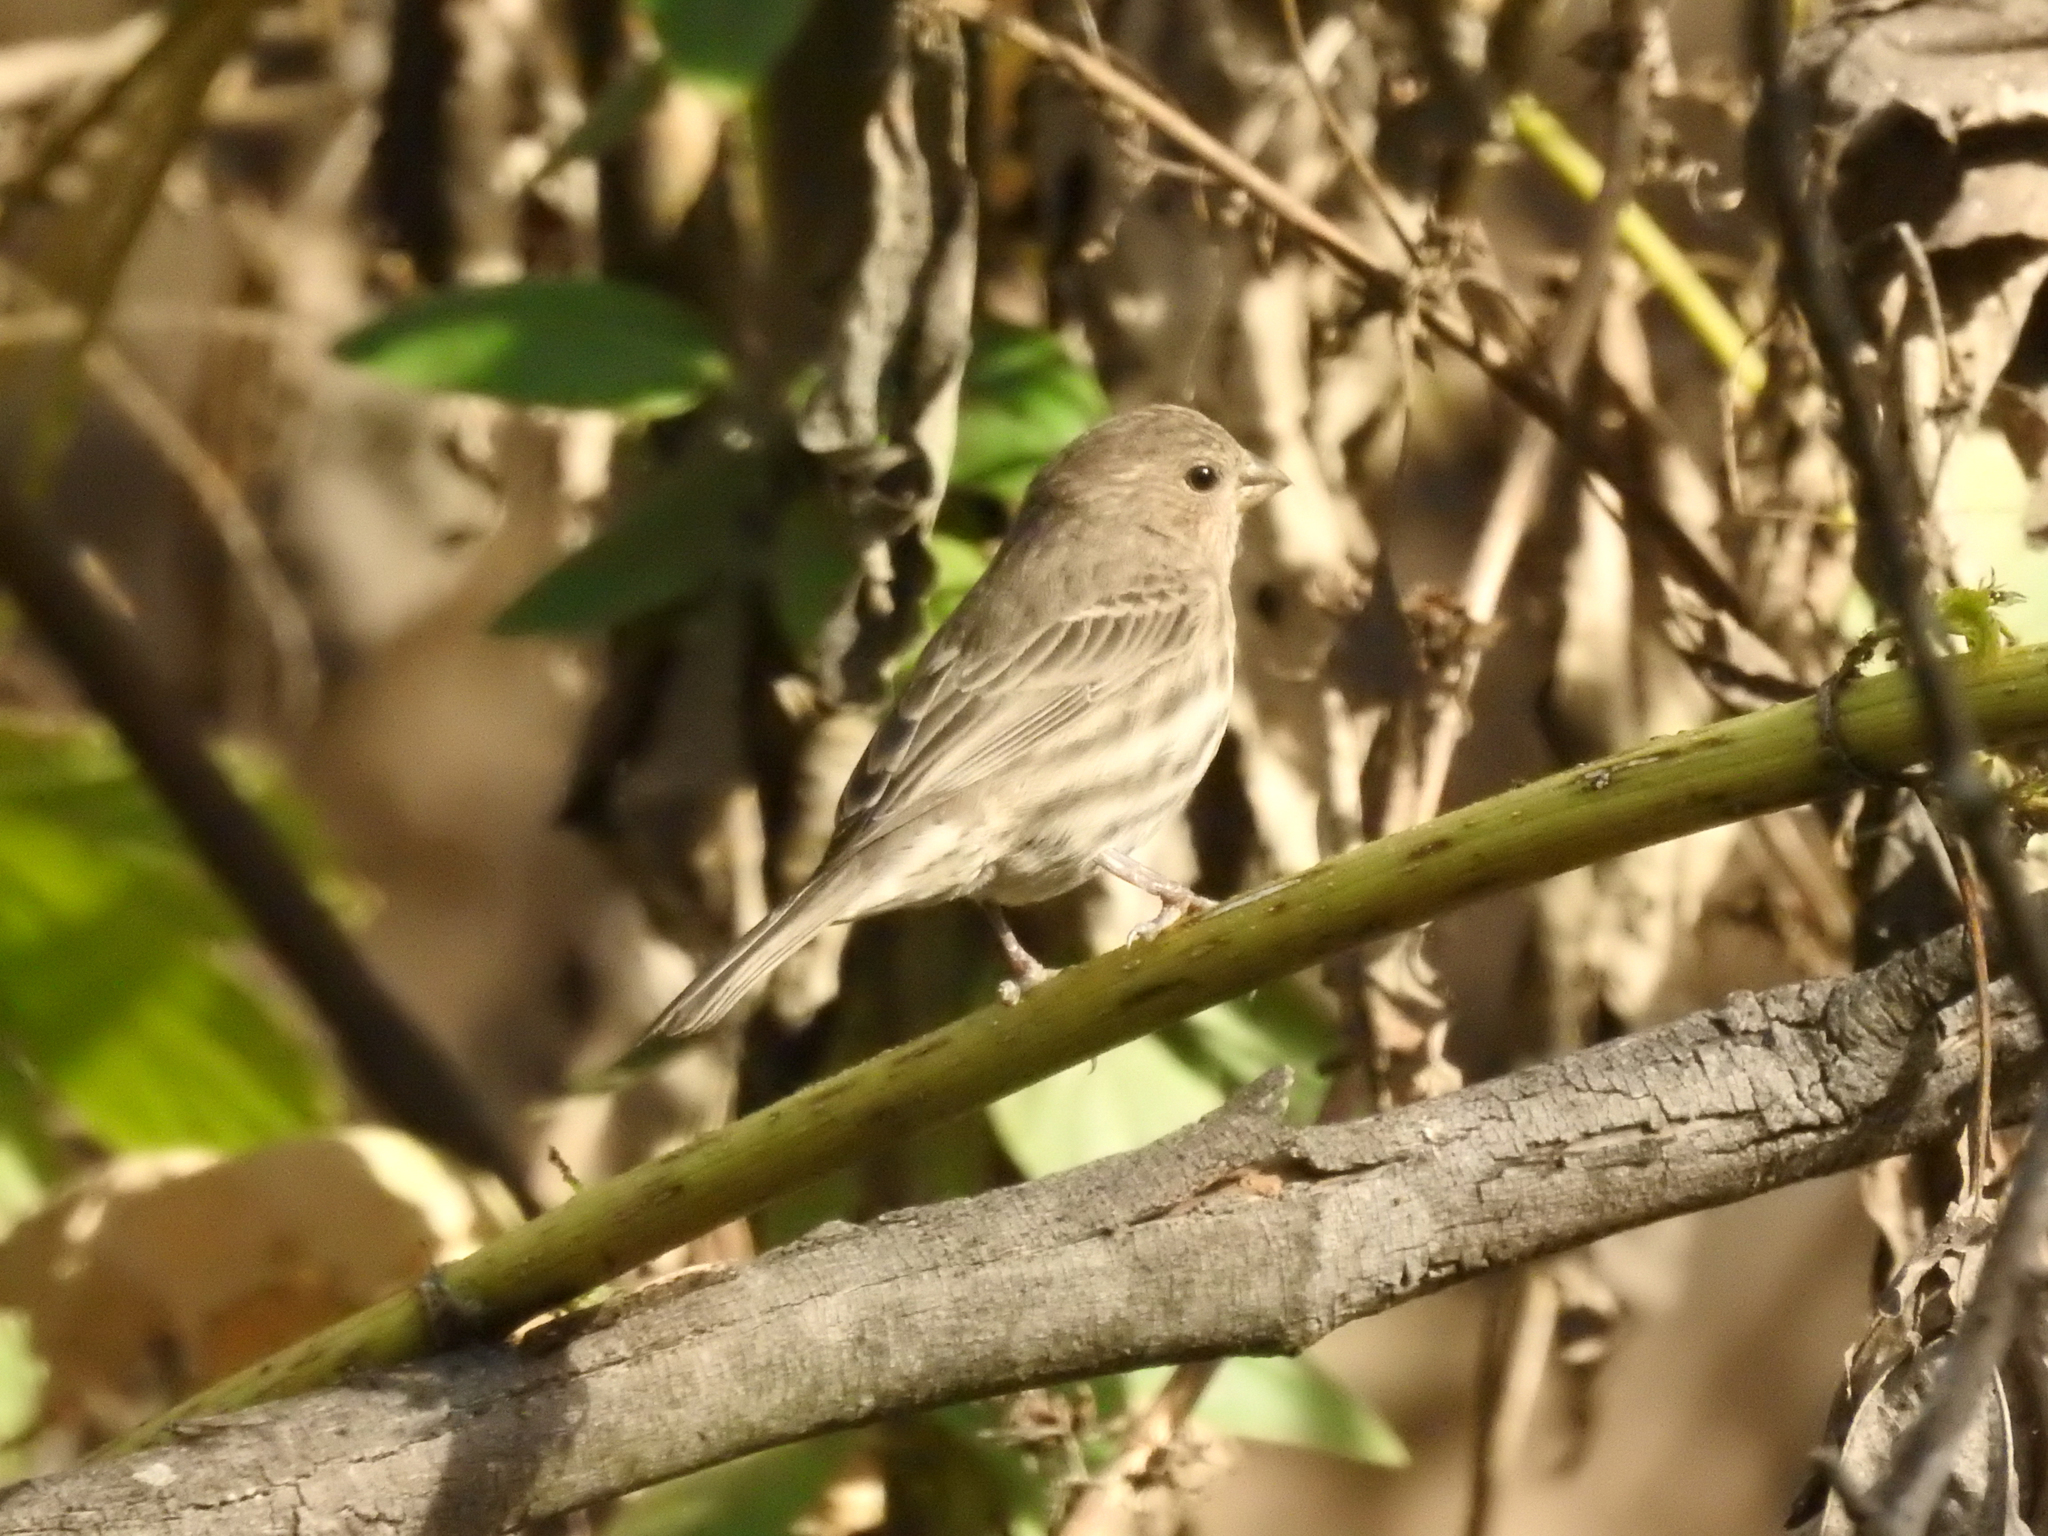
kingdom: Animalia
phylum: Chordata
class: Aves
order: Passeriformes
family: Fringillidae
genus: Haemorhous
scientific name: Haemorhous mexicanus
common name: House finch
